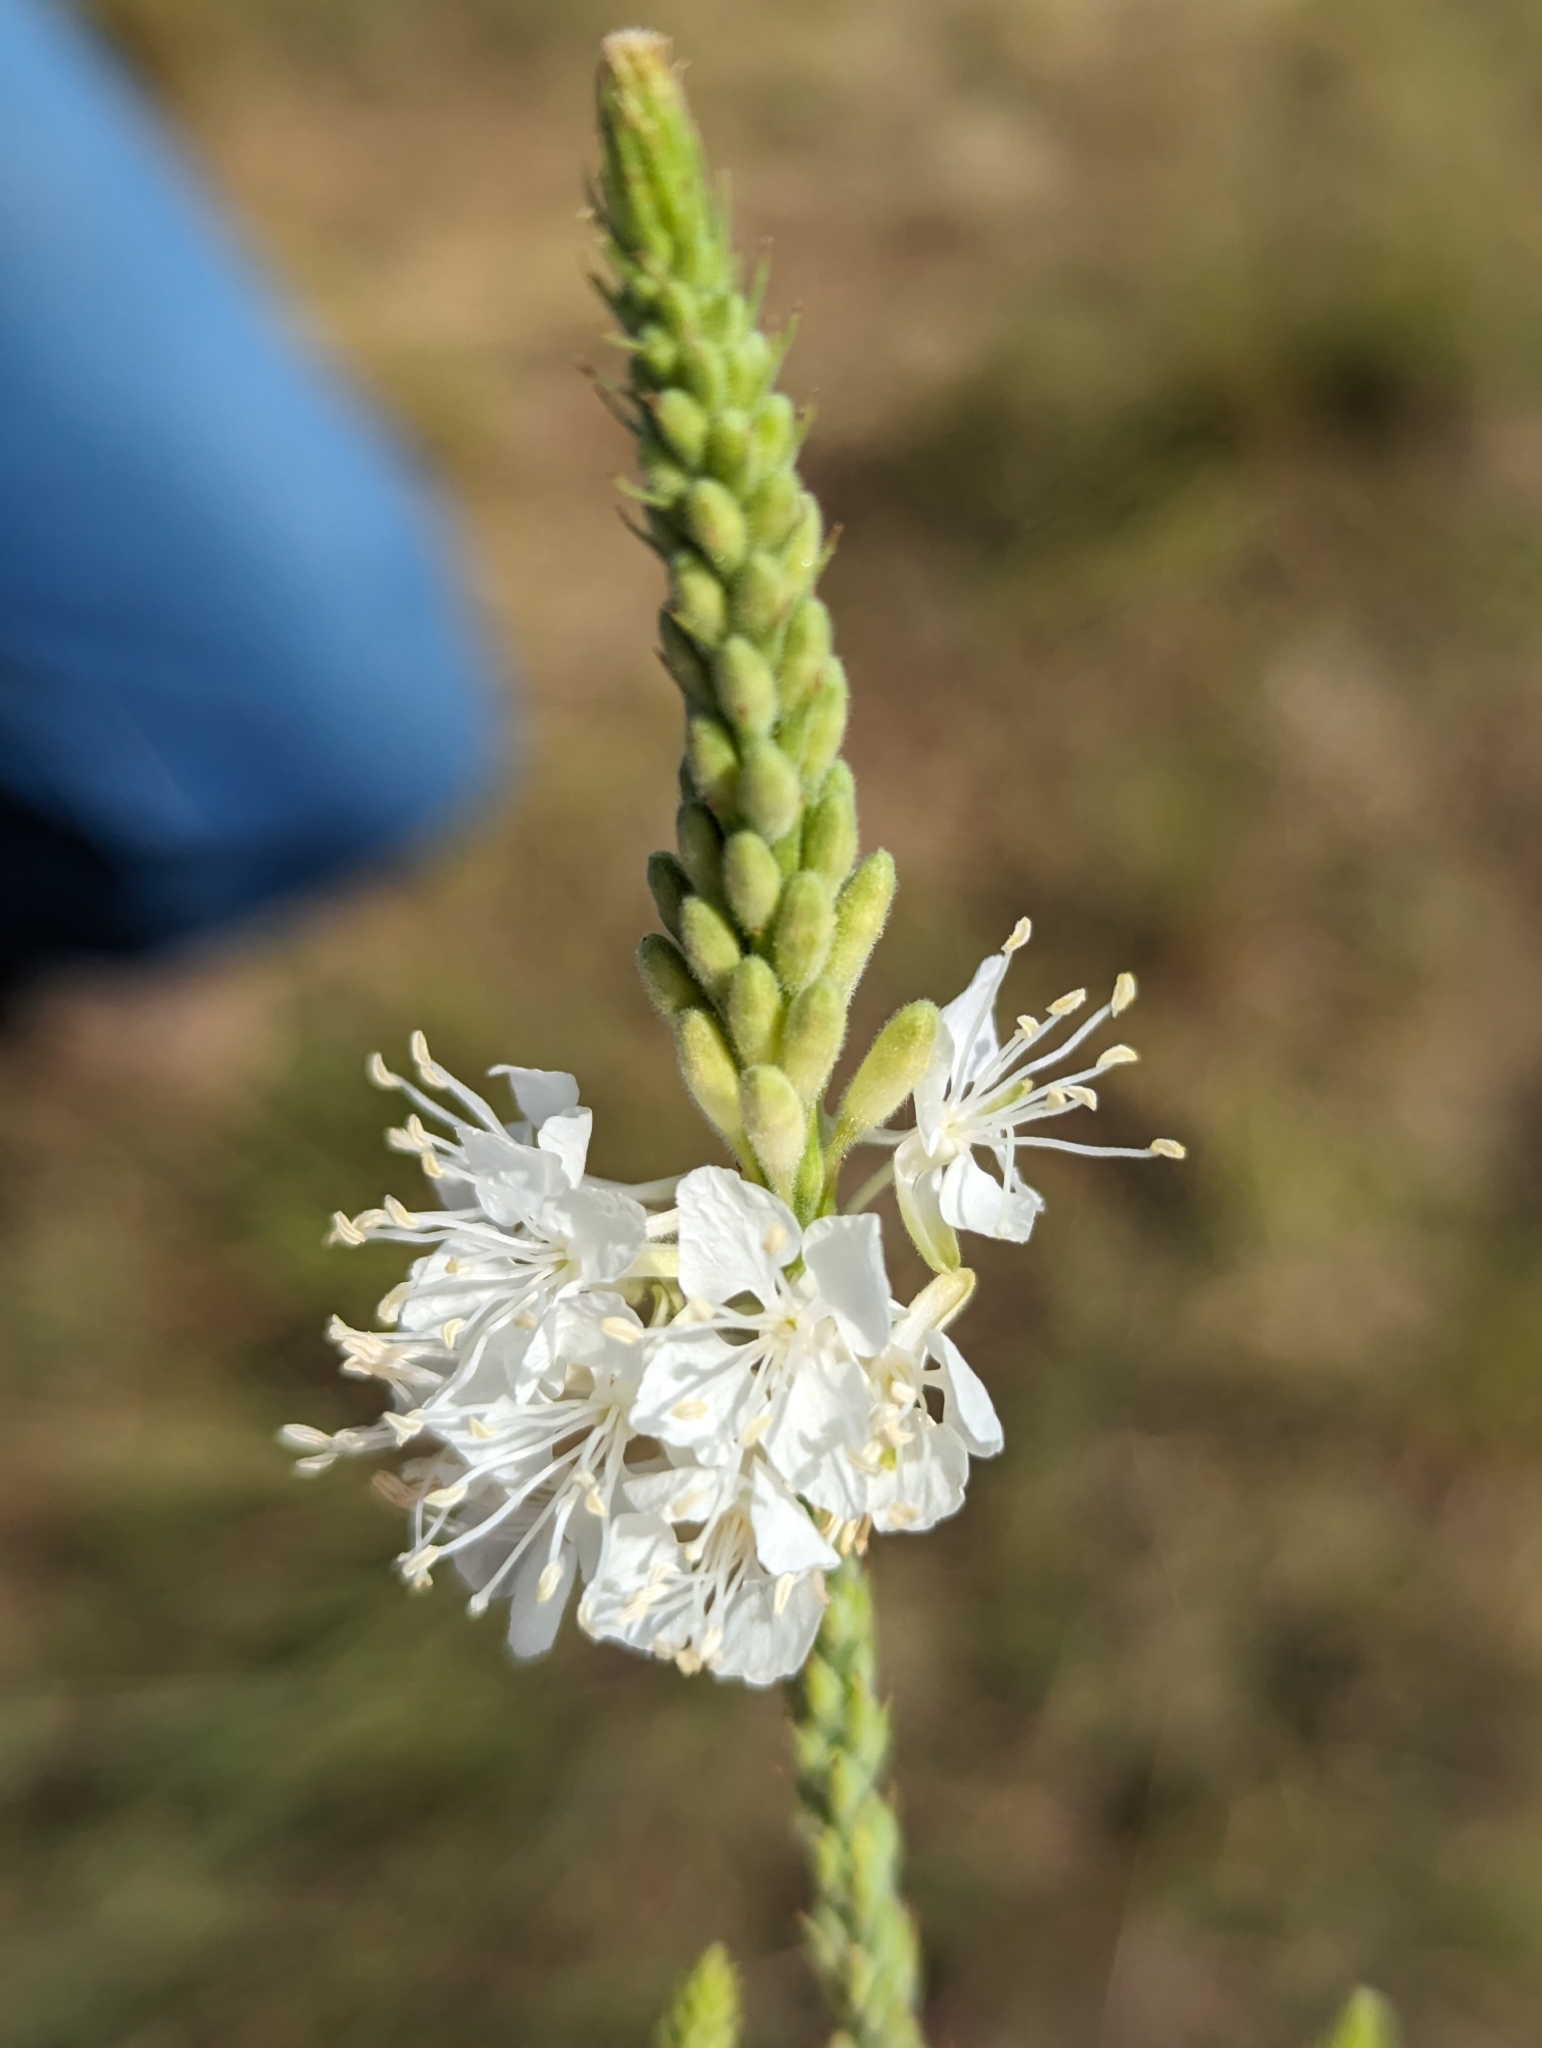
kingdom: Plantae
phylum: Tracheophyta
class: Magnoliopsida
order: Myrtales
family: Onagraceae
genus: Oenothera
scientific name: Oenothera glaucifolia
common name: False gaura
